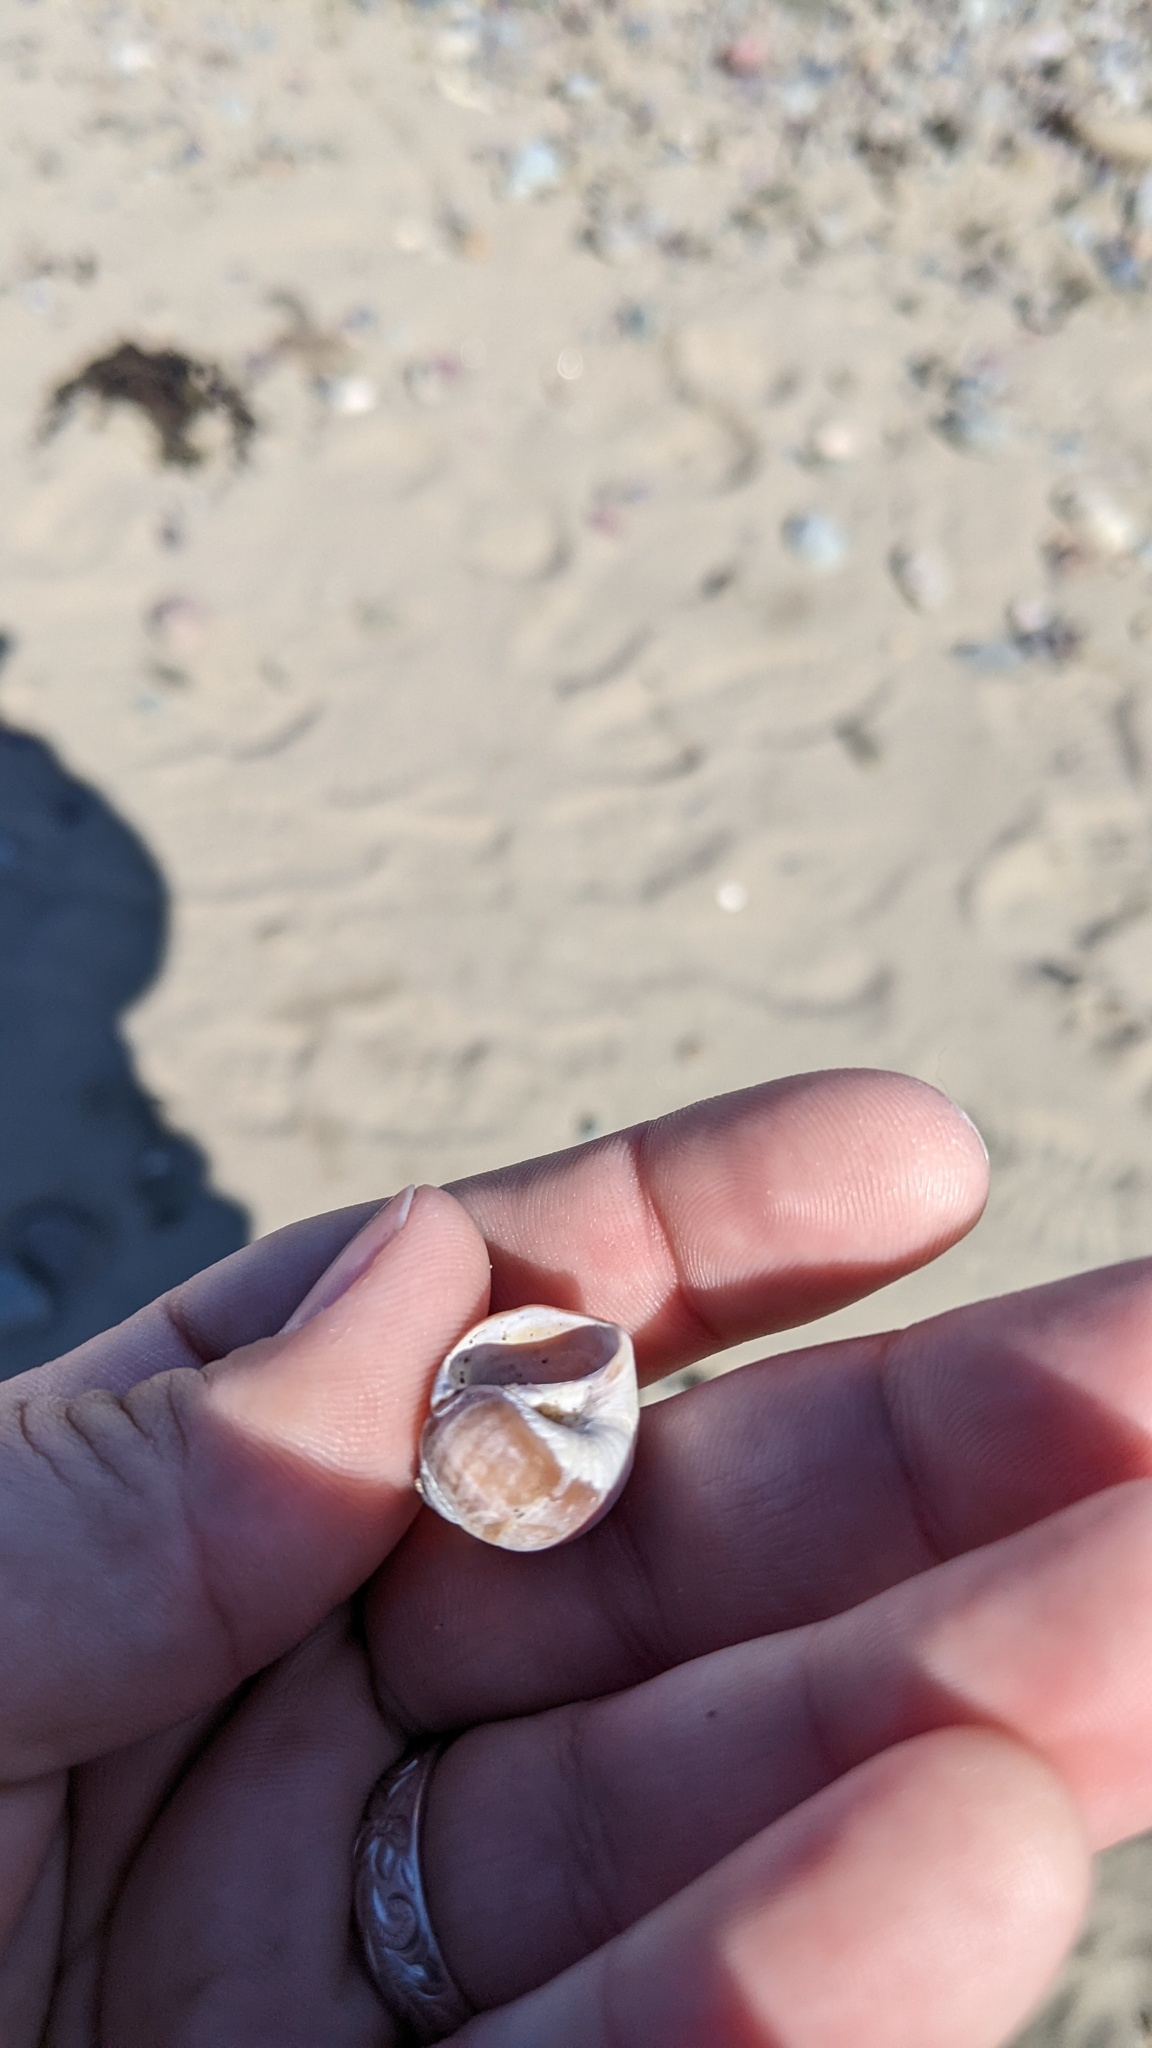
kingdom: Animalia
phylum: Mollusca
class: Gastropoda
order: Littorinimorpha
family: Naticidae
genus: Euspira
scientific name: Euspira heros
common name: Common northern moonsnail
